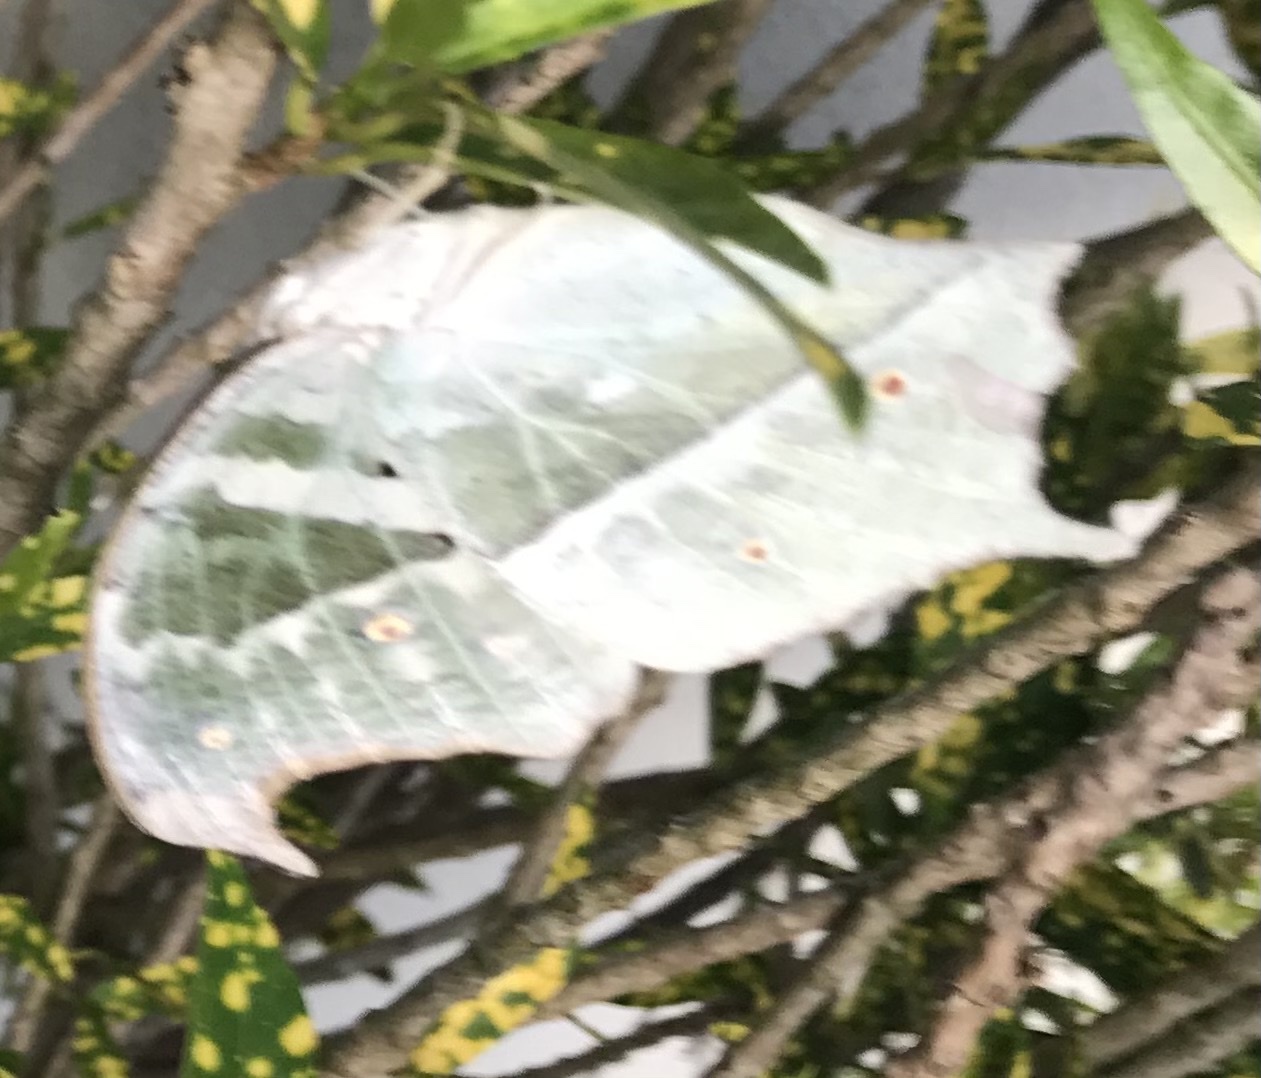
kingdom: Animalia
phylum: Arthropoda
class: Insecta
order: Lepidoptera
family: Nymphalidae
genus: Salamis
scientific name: Salamis Protogoniomorpha parhassus
